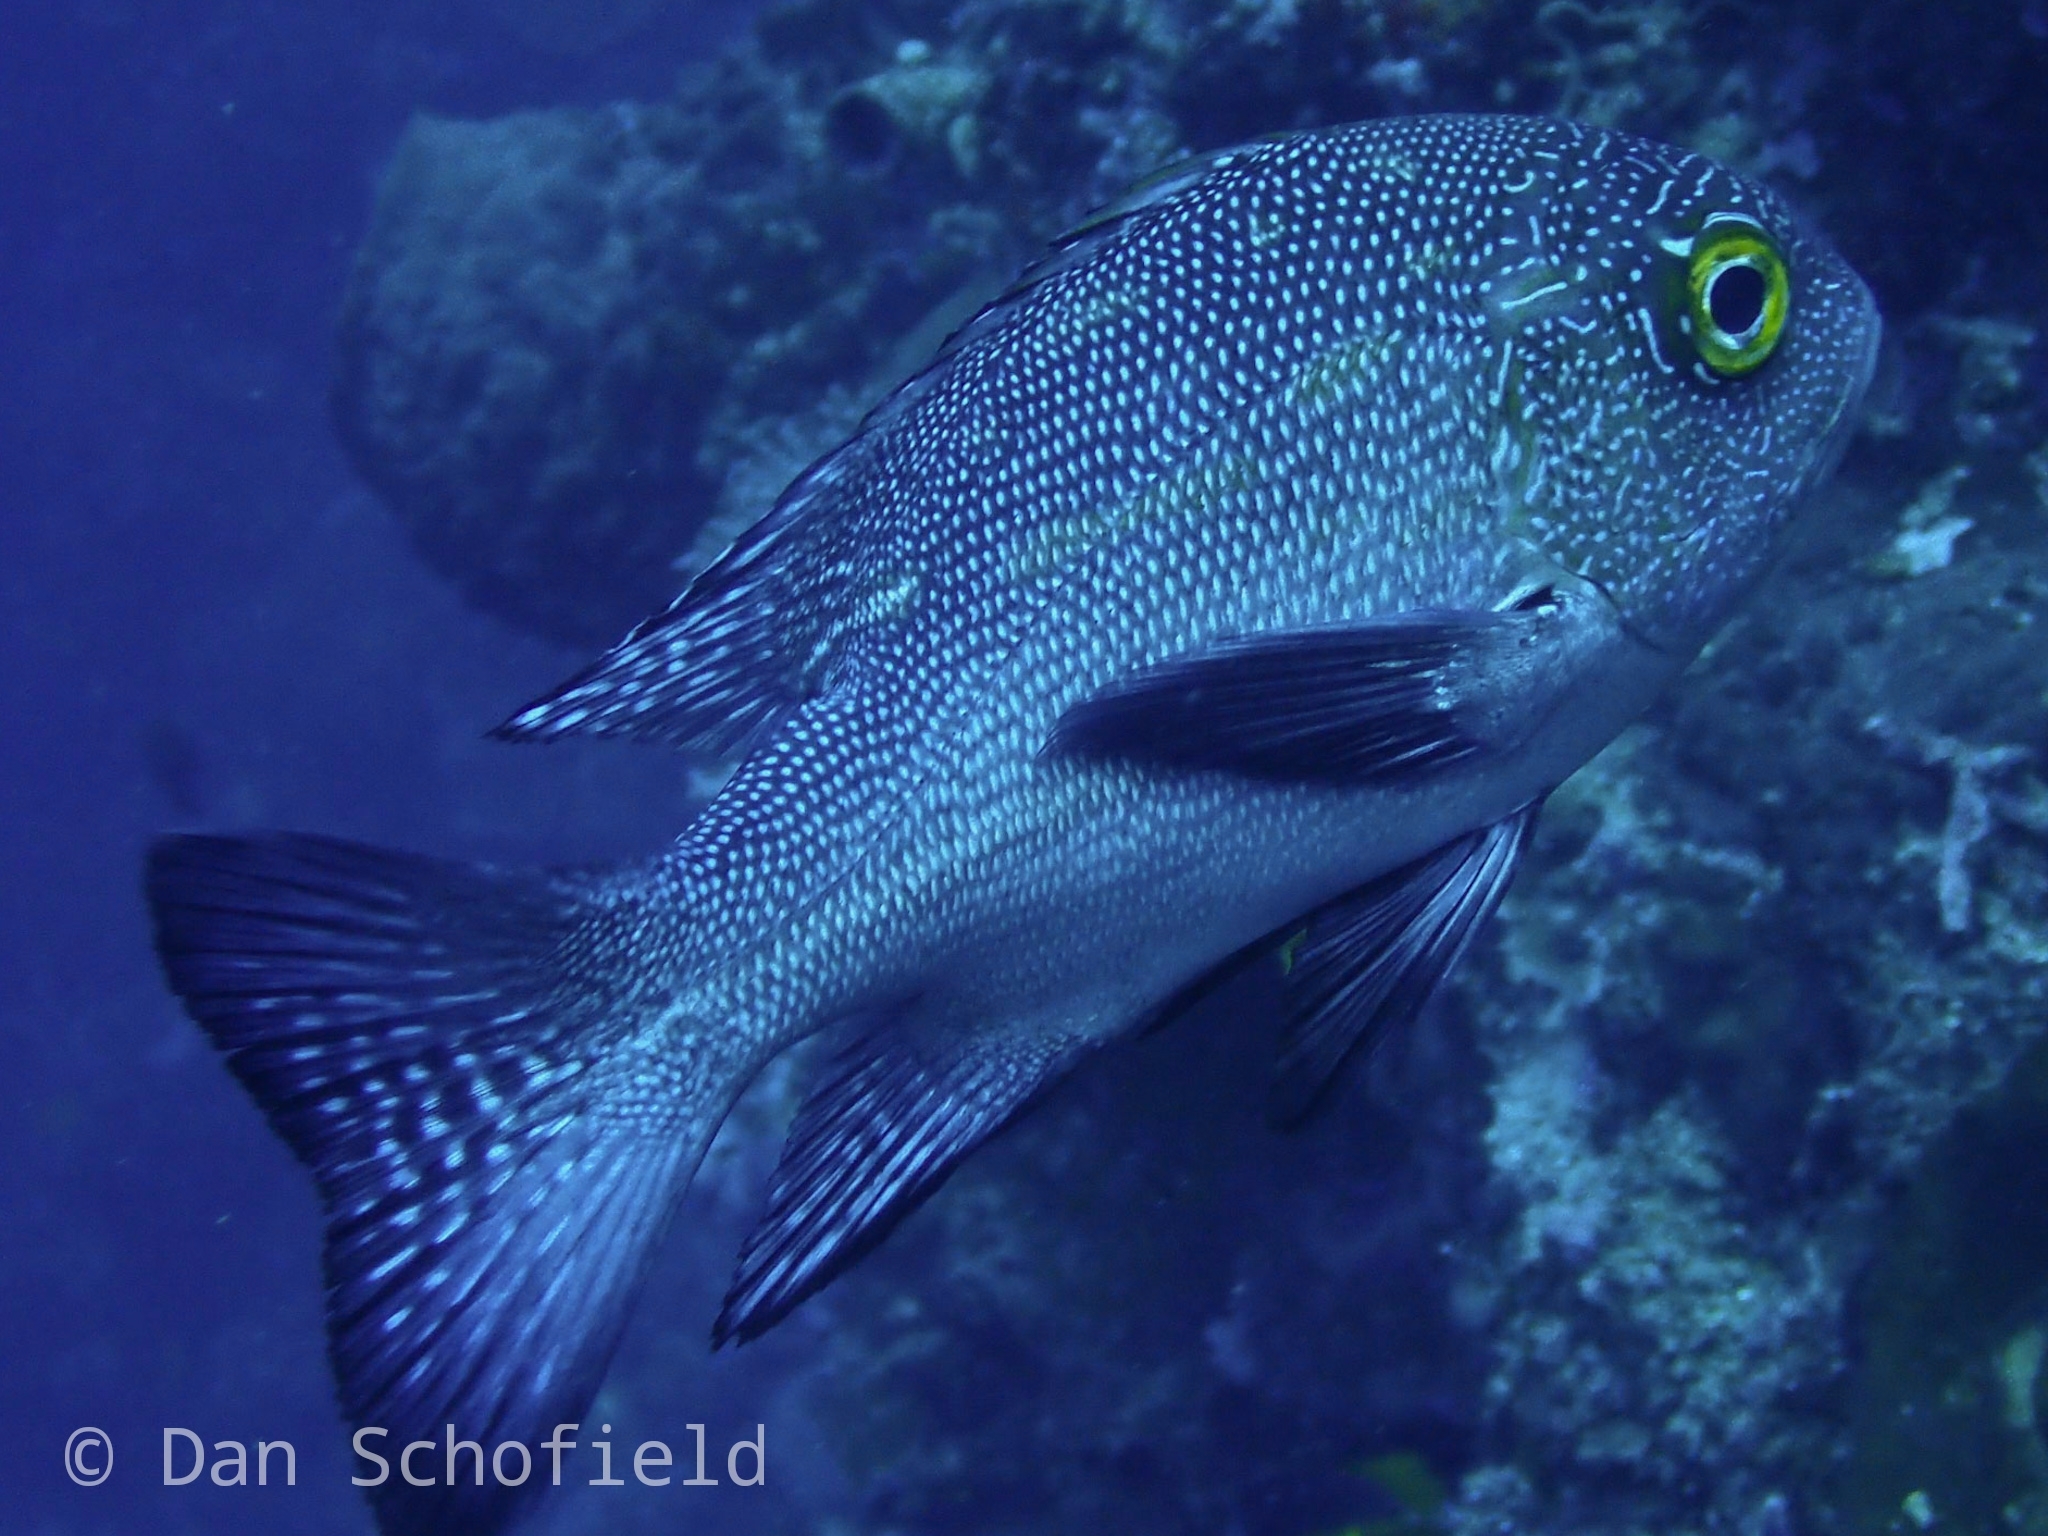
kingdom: Animalia
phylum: Chordata
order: Perciformes
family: Lutjanidae
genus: Macolor
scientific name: Macolor macularis
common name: Midnight snapper
